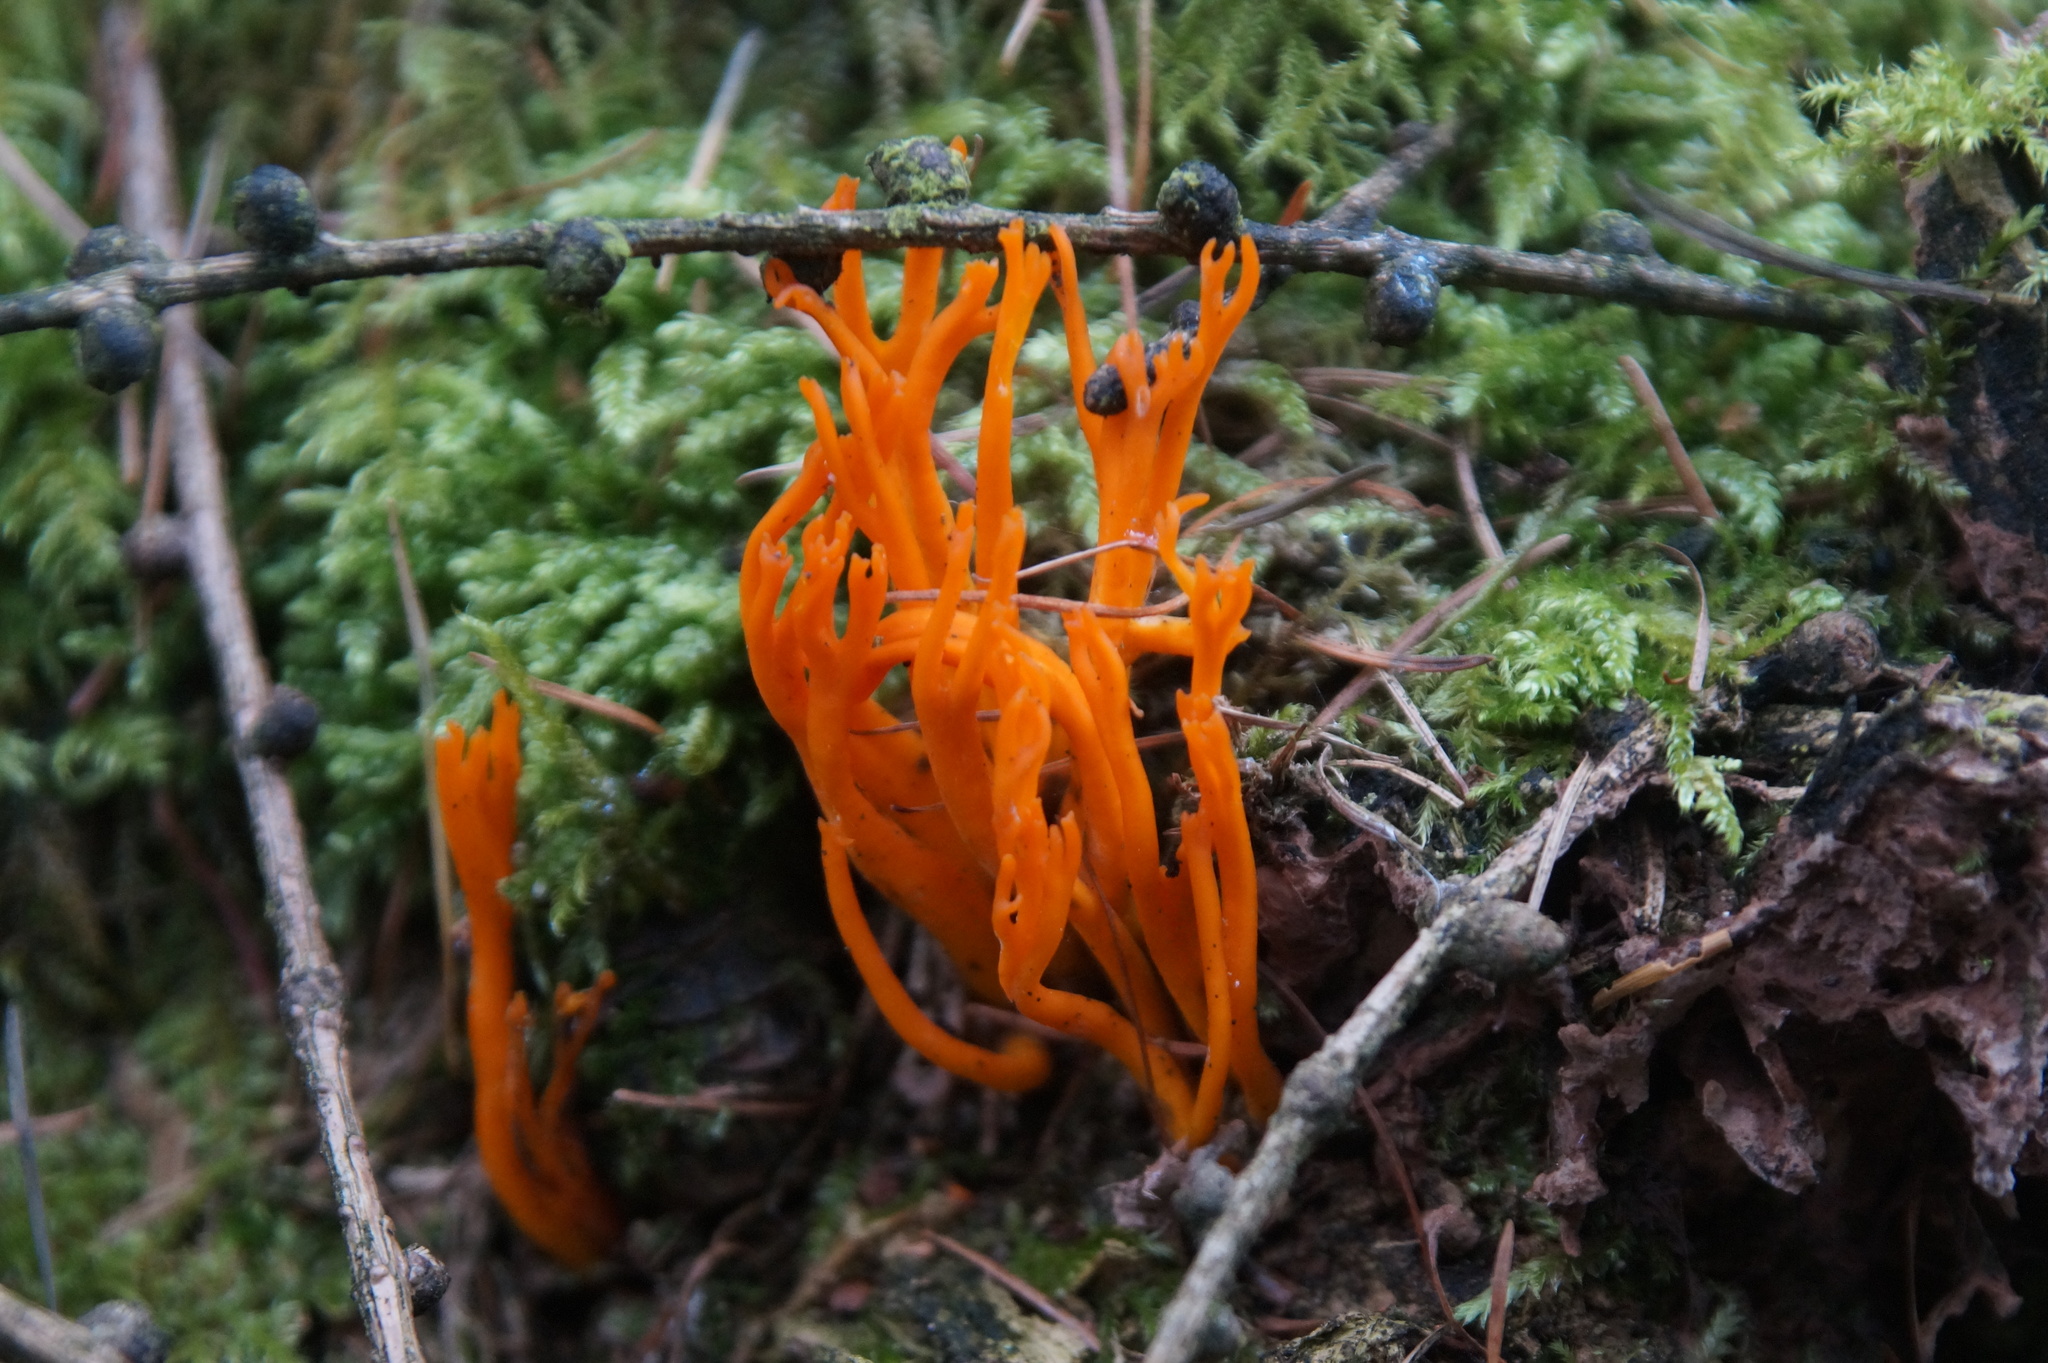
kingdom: Fungi
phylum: Basidiomycota
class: Dacrymycetes
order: Dacrymycetales
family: Dacrymycetaceae
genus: Calocera
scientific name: Calocera viscosa
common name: Yellow stagshorn
